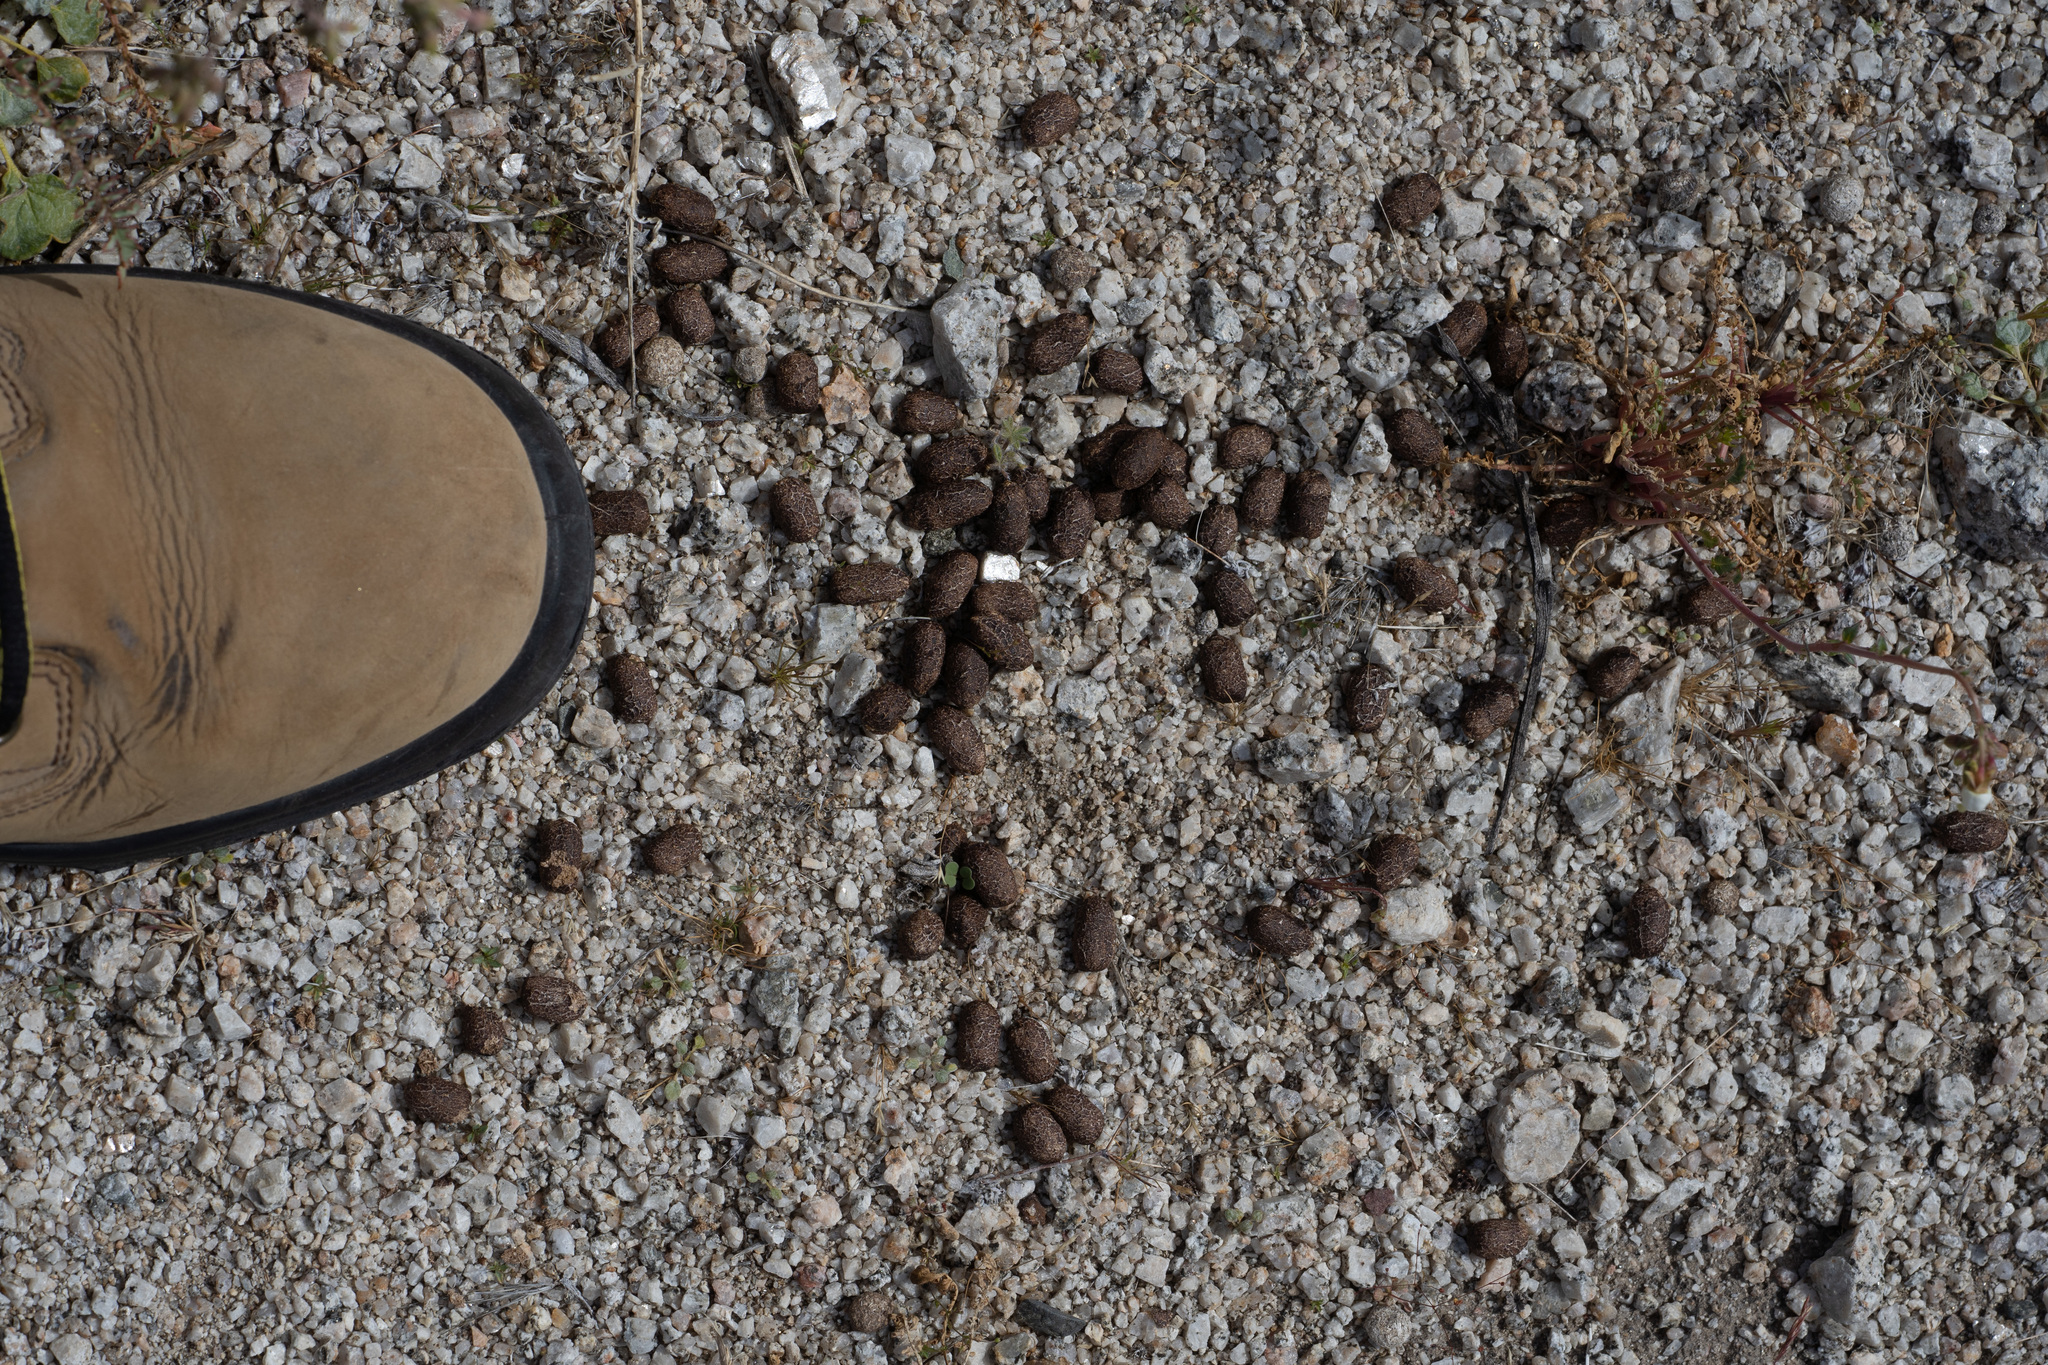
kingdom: Animalia
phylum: Chordata
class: Mammalia
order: Artiodactyla
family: Cervidae
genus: Odocoileus
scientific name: Odocoileus hemionus
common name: Mule deer
